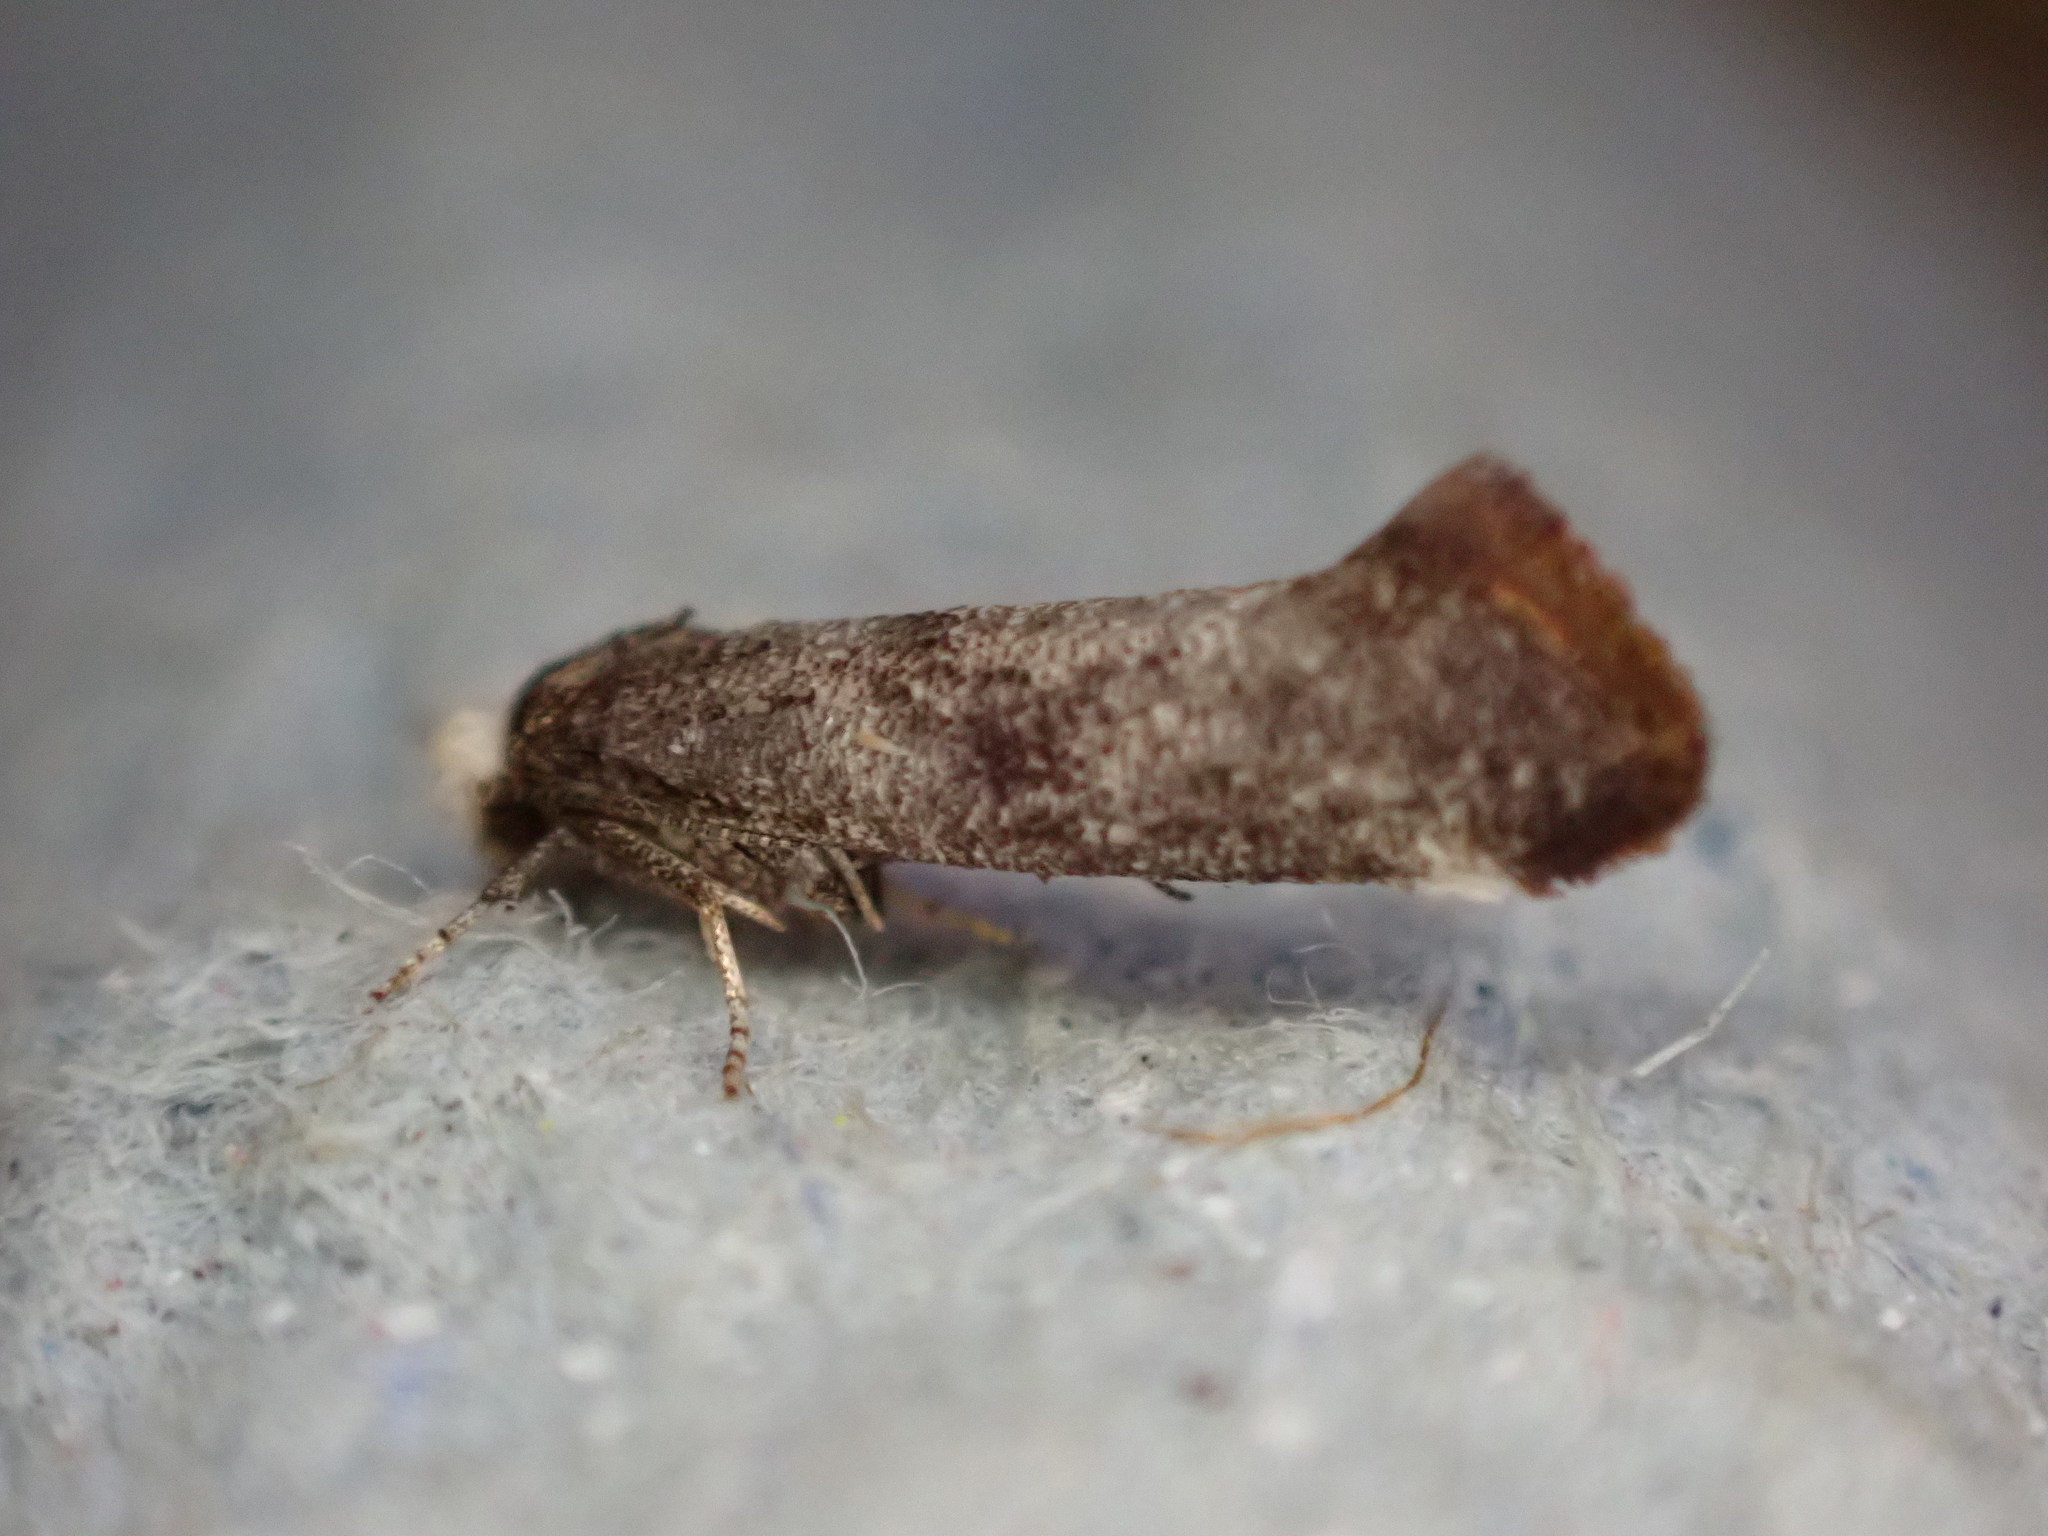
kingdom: Animalia
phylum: Arthropoda
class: Insecta
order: Lepidoptera
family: Yponomeutidae
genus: Swammerdamia
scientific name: Swammerdamia pyrella
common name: Little ermine moth
